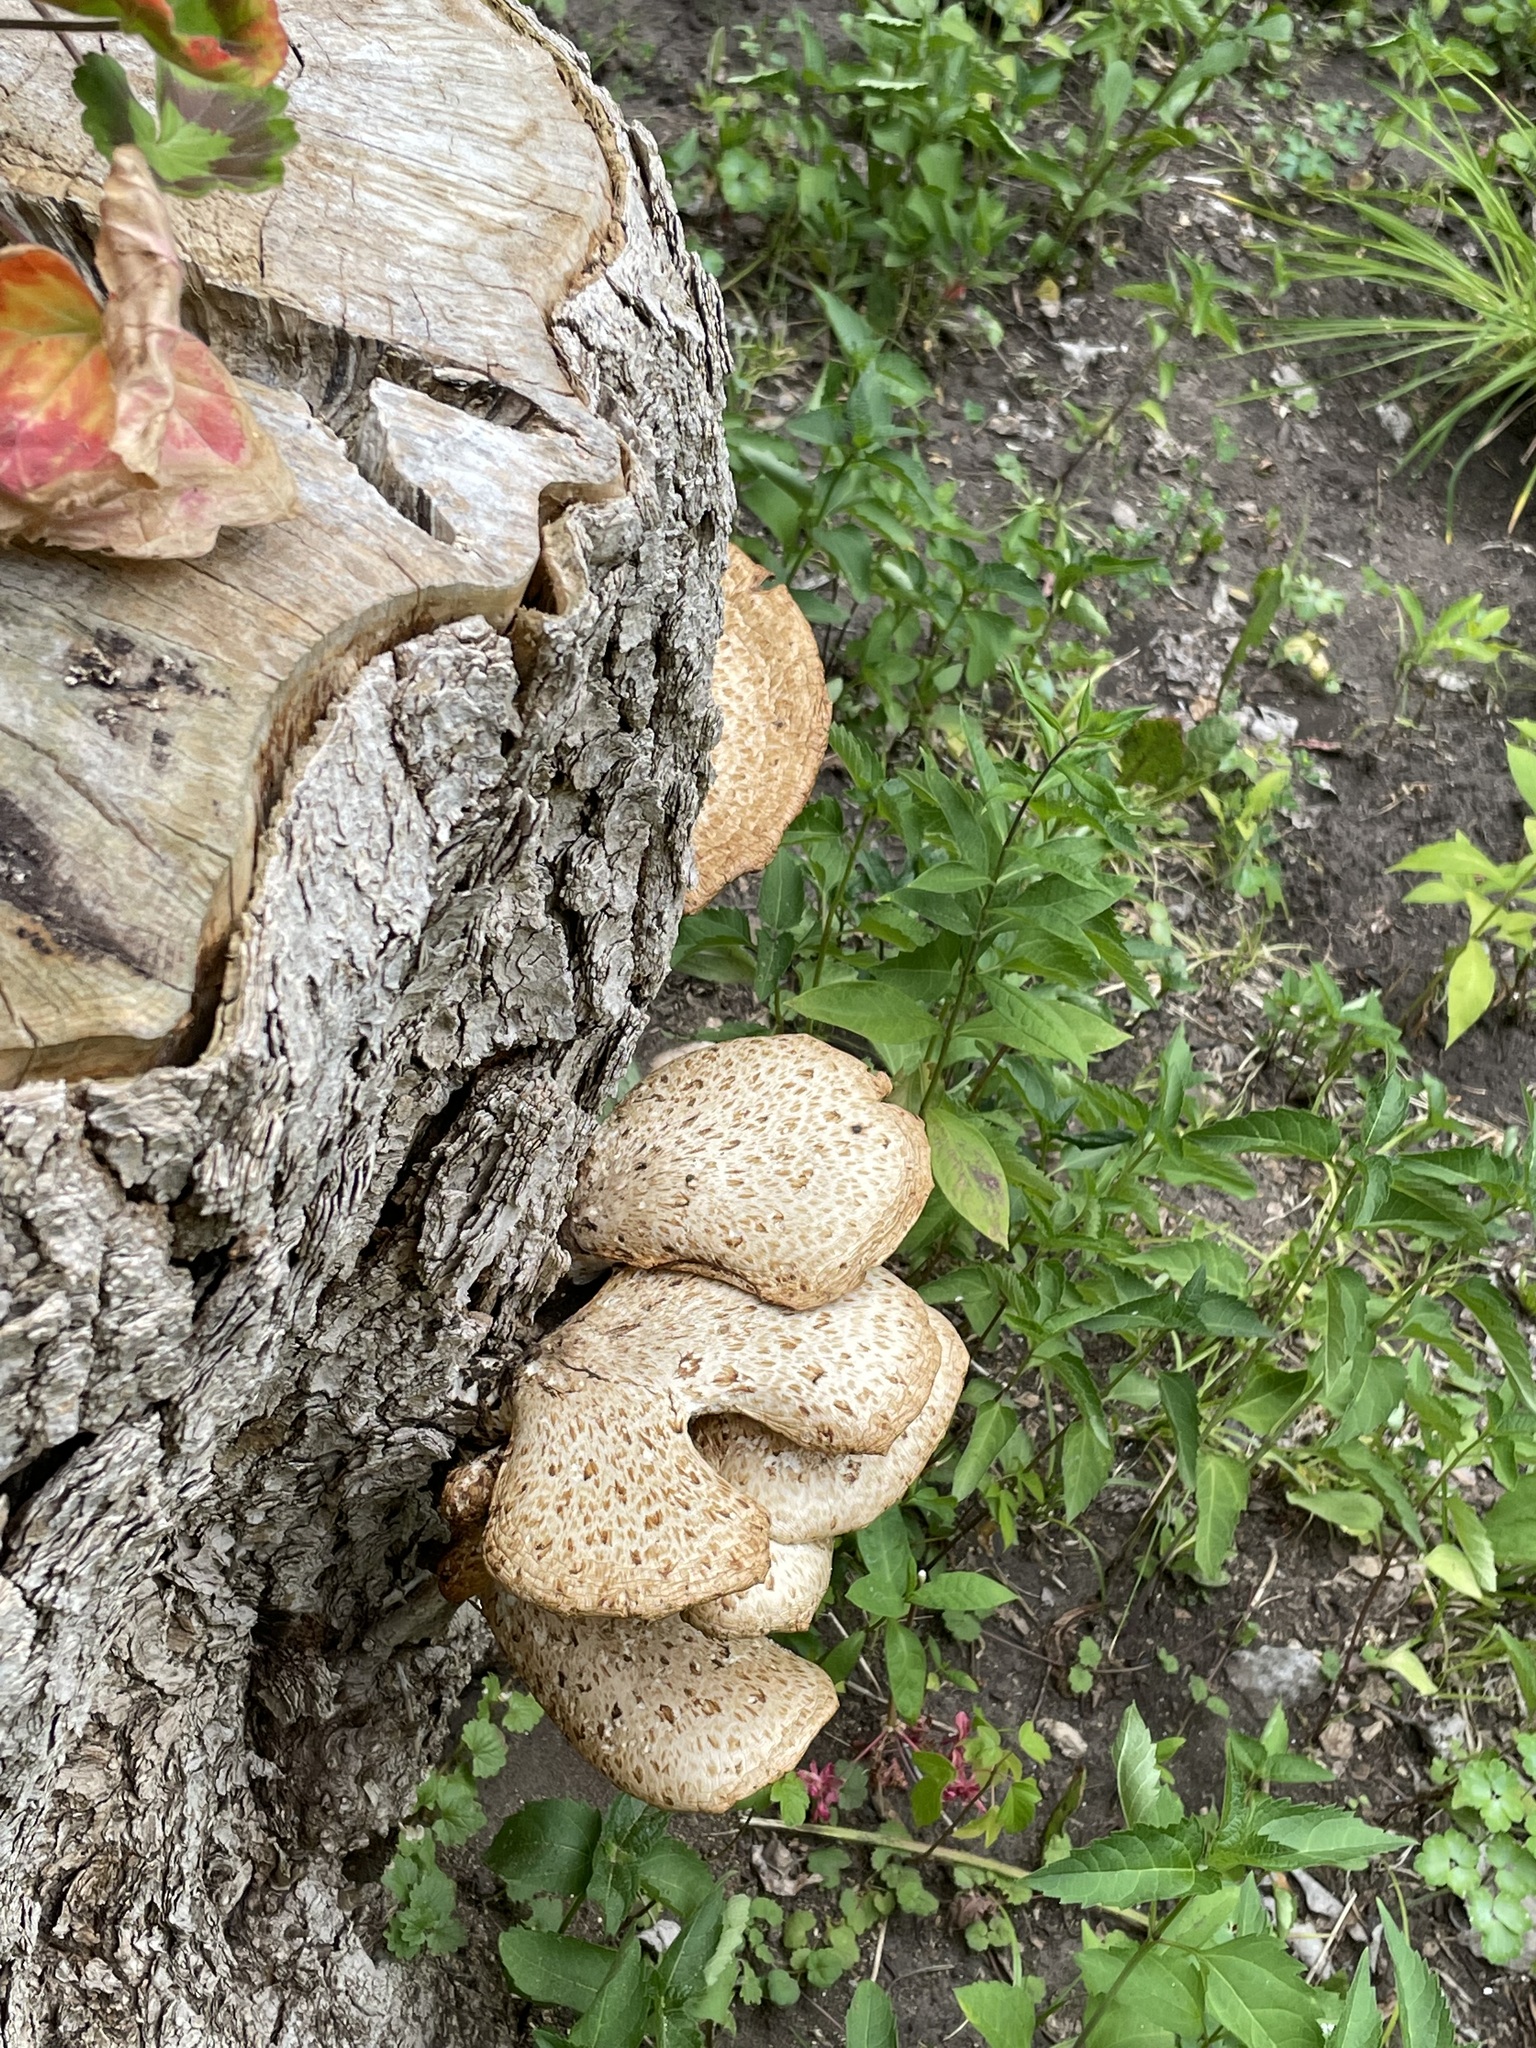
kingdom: Fungi
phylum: Basidiomycota
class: Agaricomycetes
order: Polyporales
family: Polyporaceae
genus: Cerioporus
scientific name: Cerioporus squamosus
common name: Dryad's saddle
